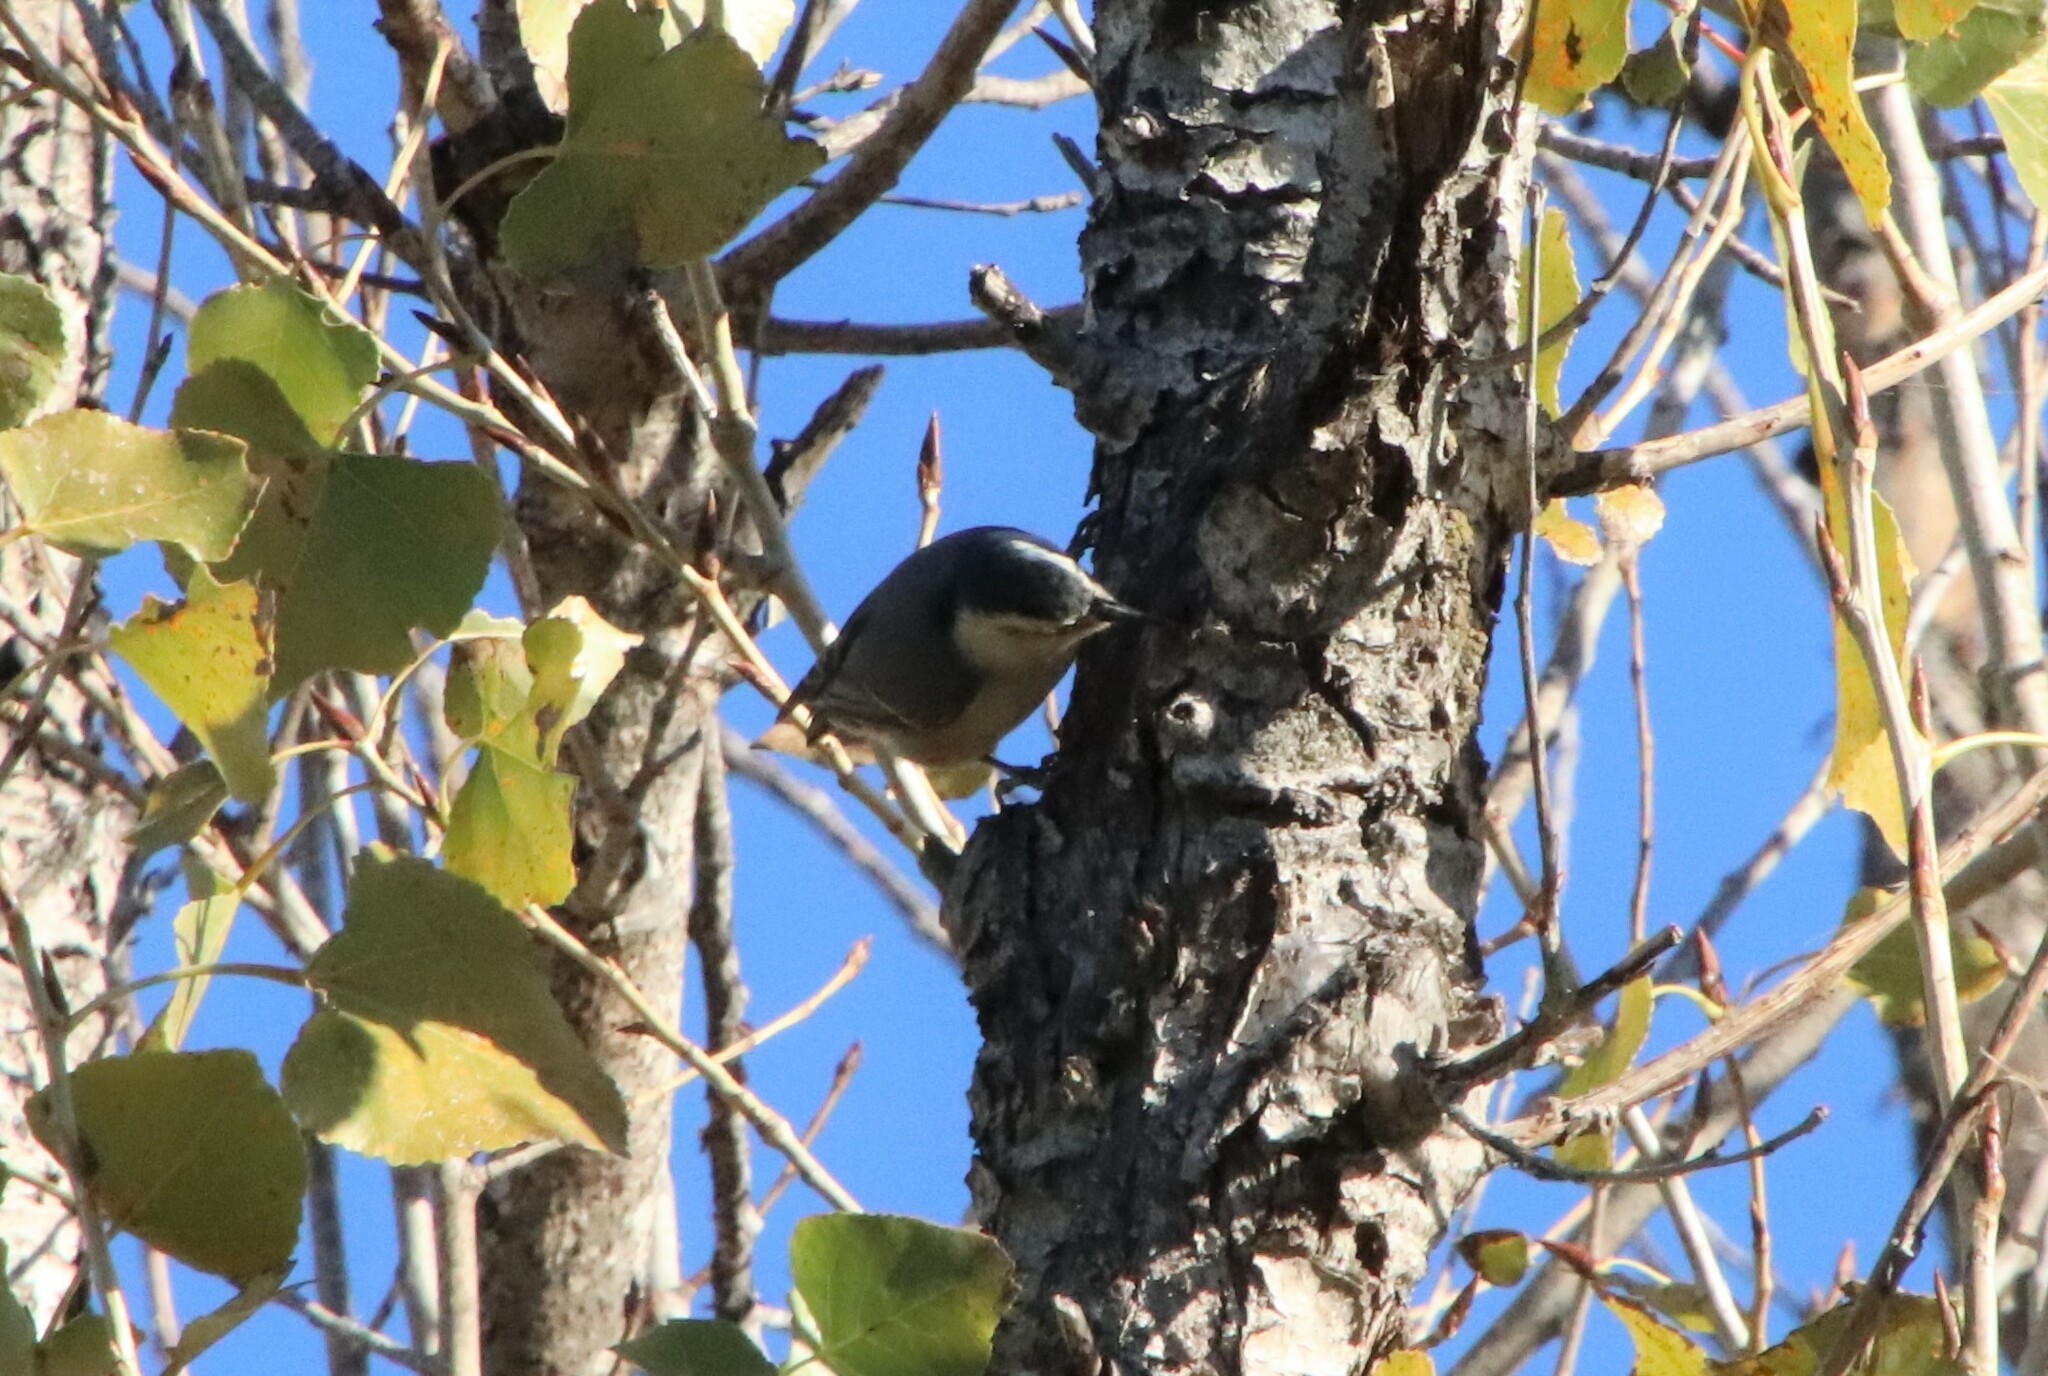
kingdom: Animalia
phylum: Chordata
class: Aves
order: Passeriformes
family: Sittidae
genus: Sitta
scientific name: Sitta carolinensis
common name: White-breasted nuthatch
